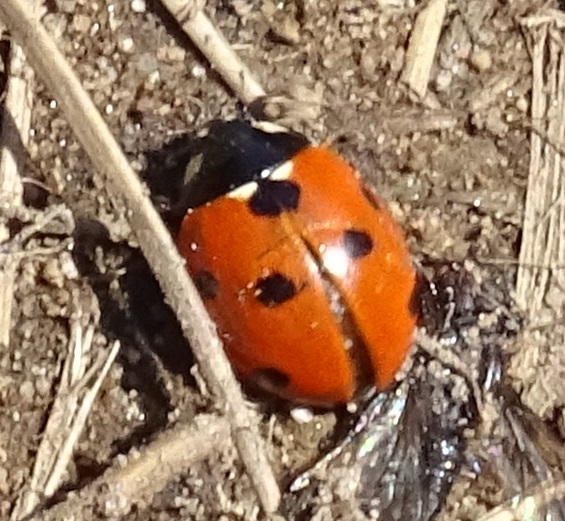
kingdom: Animalia
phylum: Arthropoda
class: Insecta
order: Coleoptera
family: Coccinellidae
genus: Coccinella
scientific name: Coccinella septempunctata
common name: Sevenspotted lady beetle
